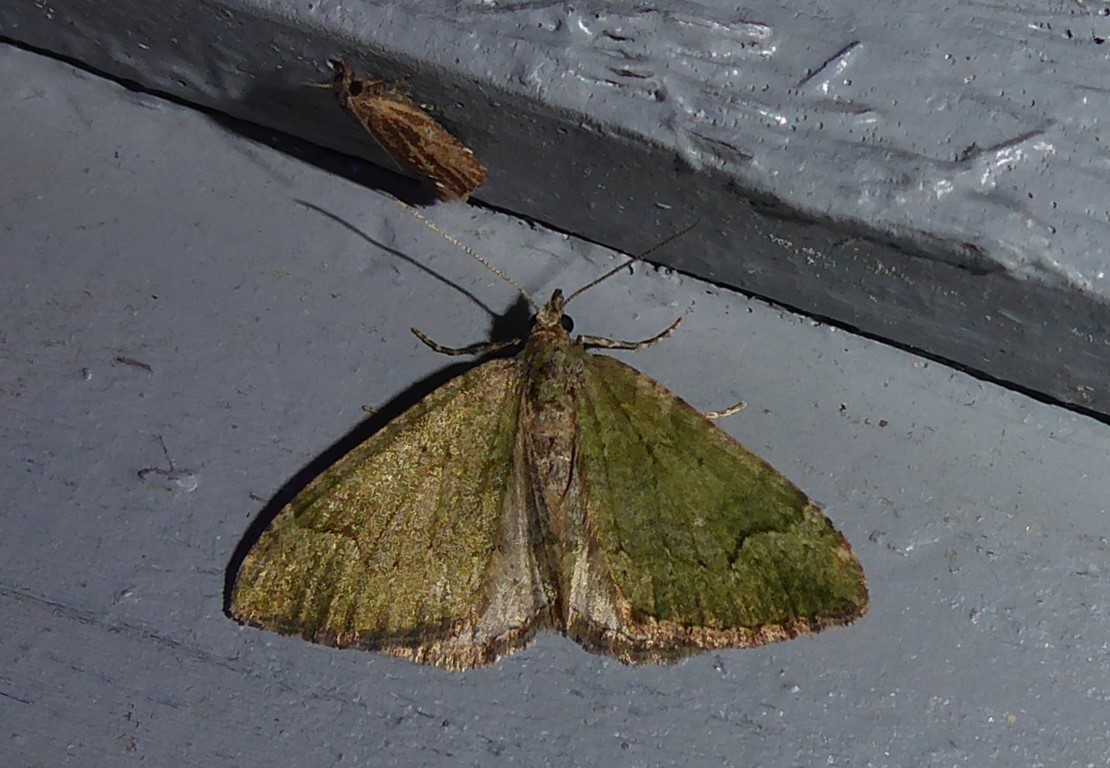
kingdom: Animalia
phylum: Arthropoda
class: Insecta
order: Lepidoptera
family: Geometridae
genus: Epyaxa
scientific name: Epyaxa rosearia
